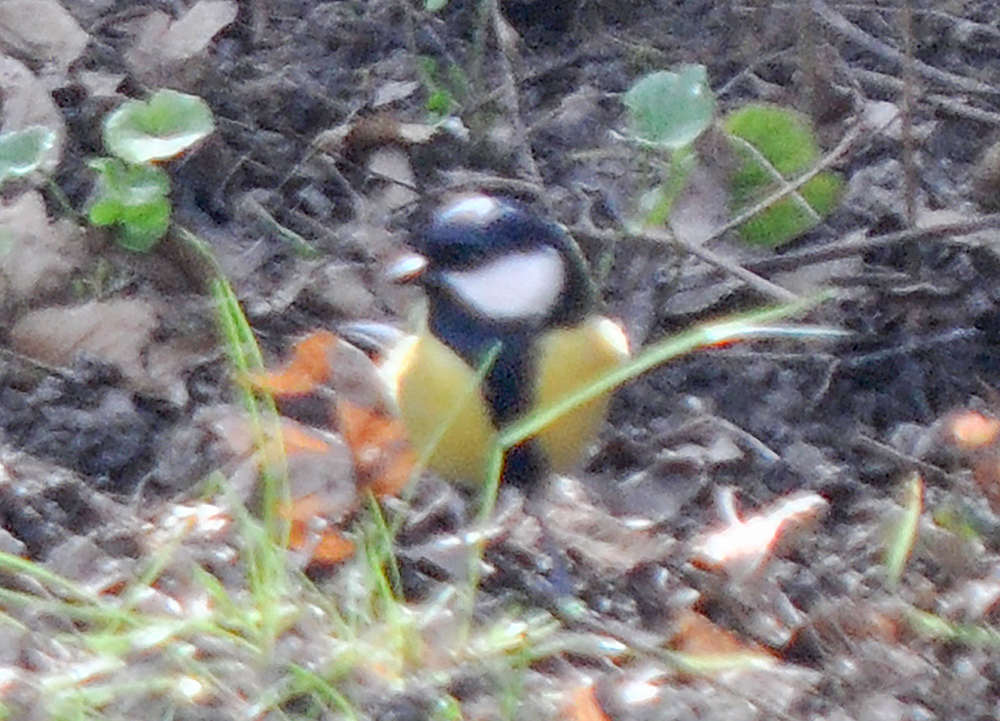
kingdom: Animalia
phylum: Chordata
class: Aves
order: Passeriformes
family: Paridae
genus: Parus
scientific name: Parus major
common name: Great tit
